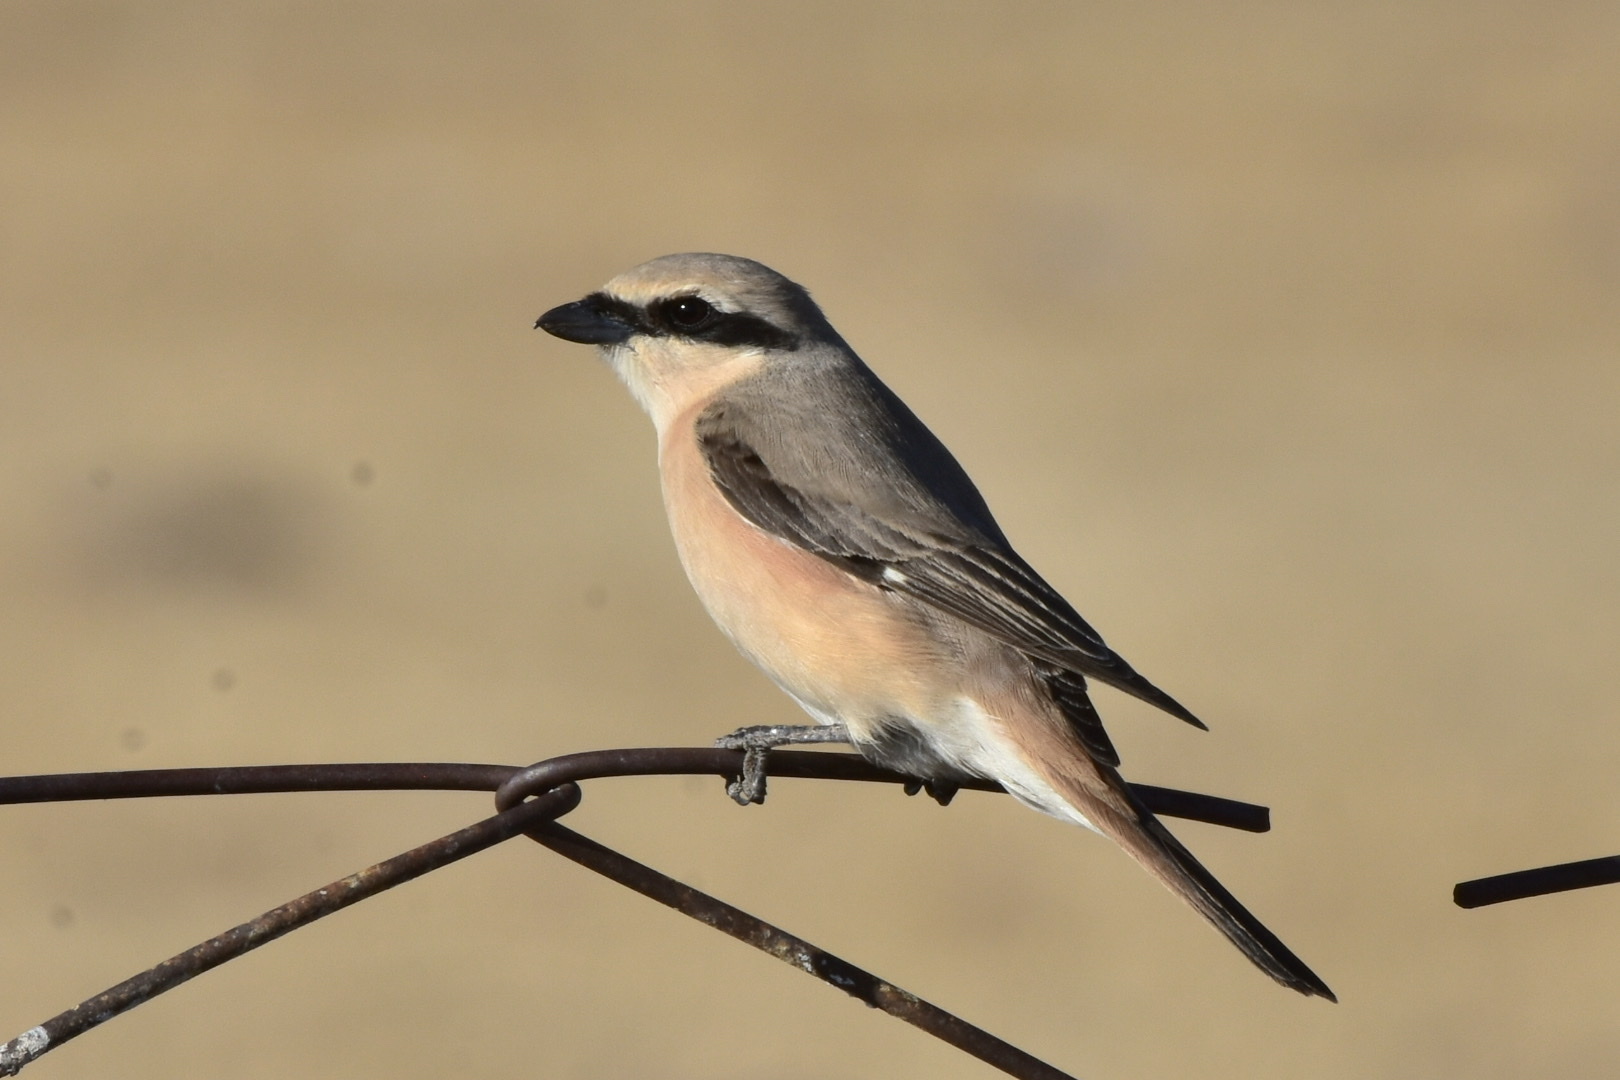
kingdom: Animalia
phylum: Chordata
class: Aves
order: Passeriformes
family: Laniidae
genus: Lanius
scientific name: Lanius isabellinus
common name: Isabelline shrike
